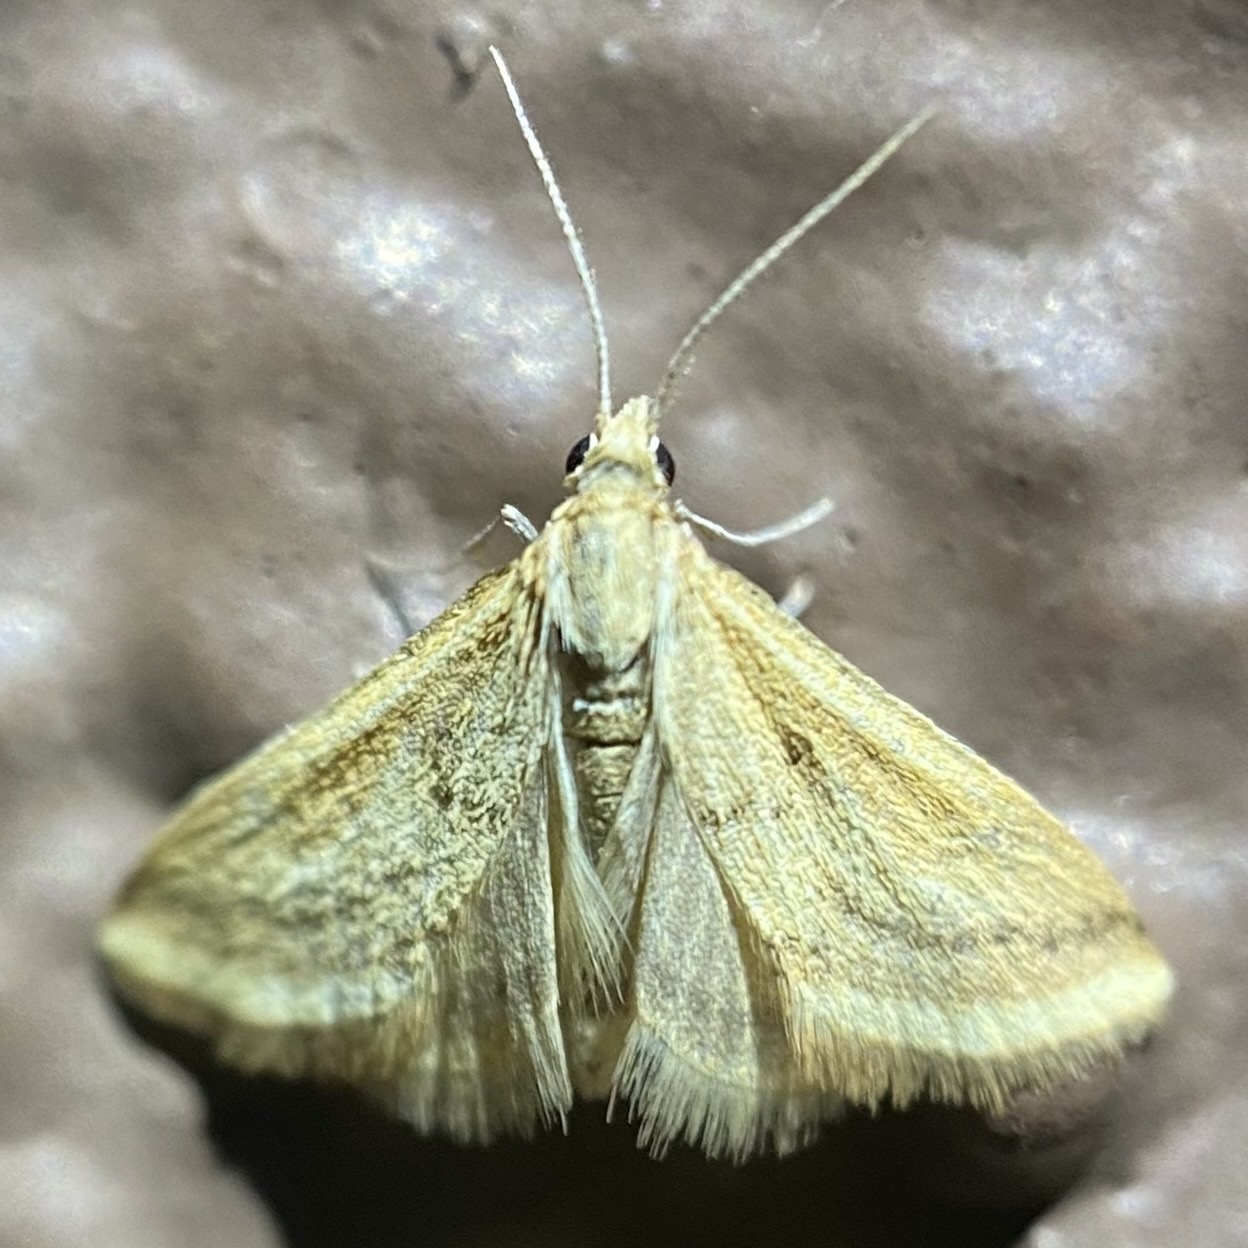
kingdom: Animalia
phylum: Arthropoda
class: Insecta
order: Lepidoptera
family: Crambidae
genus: Microtheoris
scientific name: Microtheoris ophionalis
